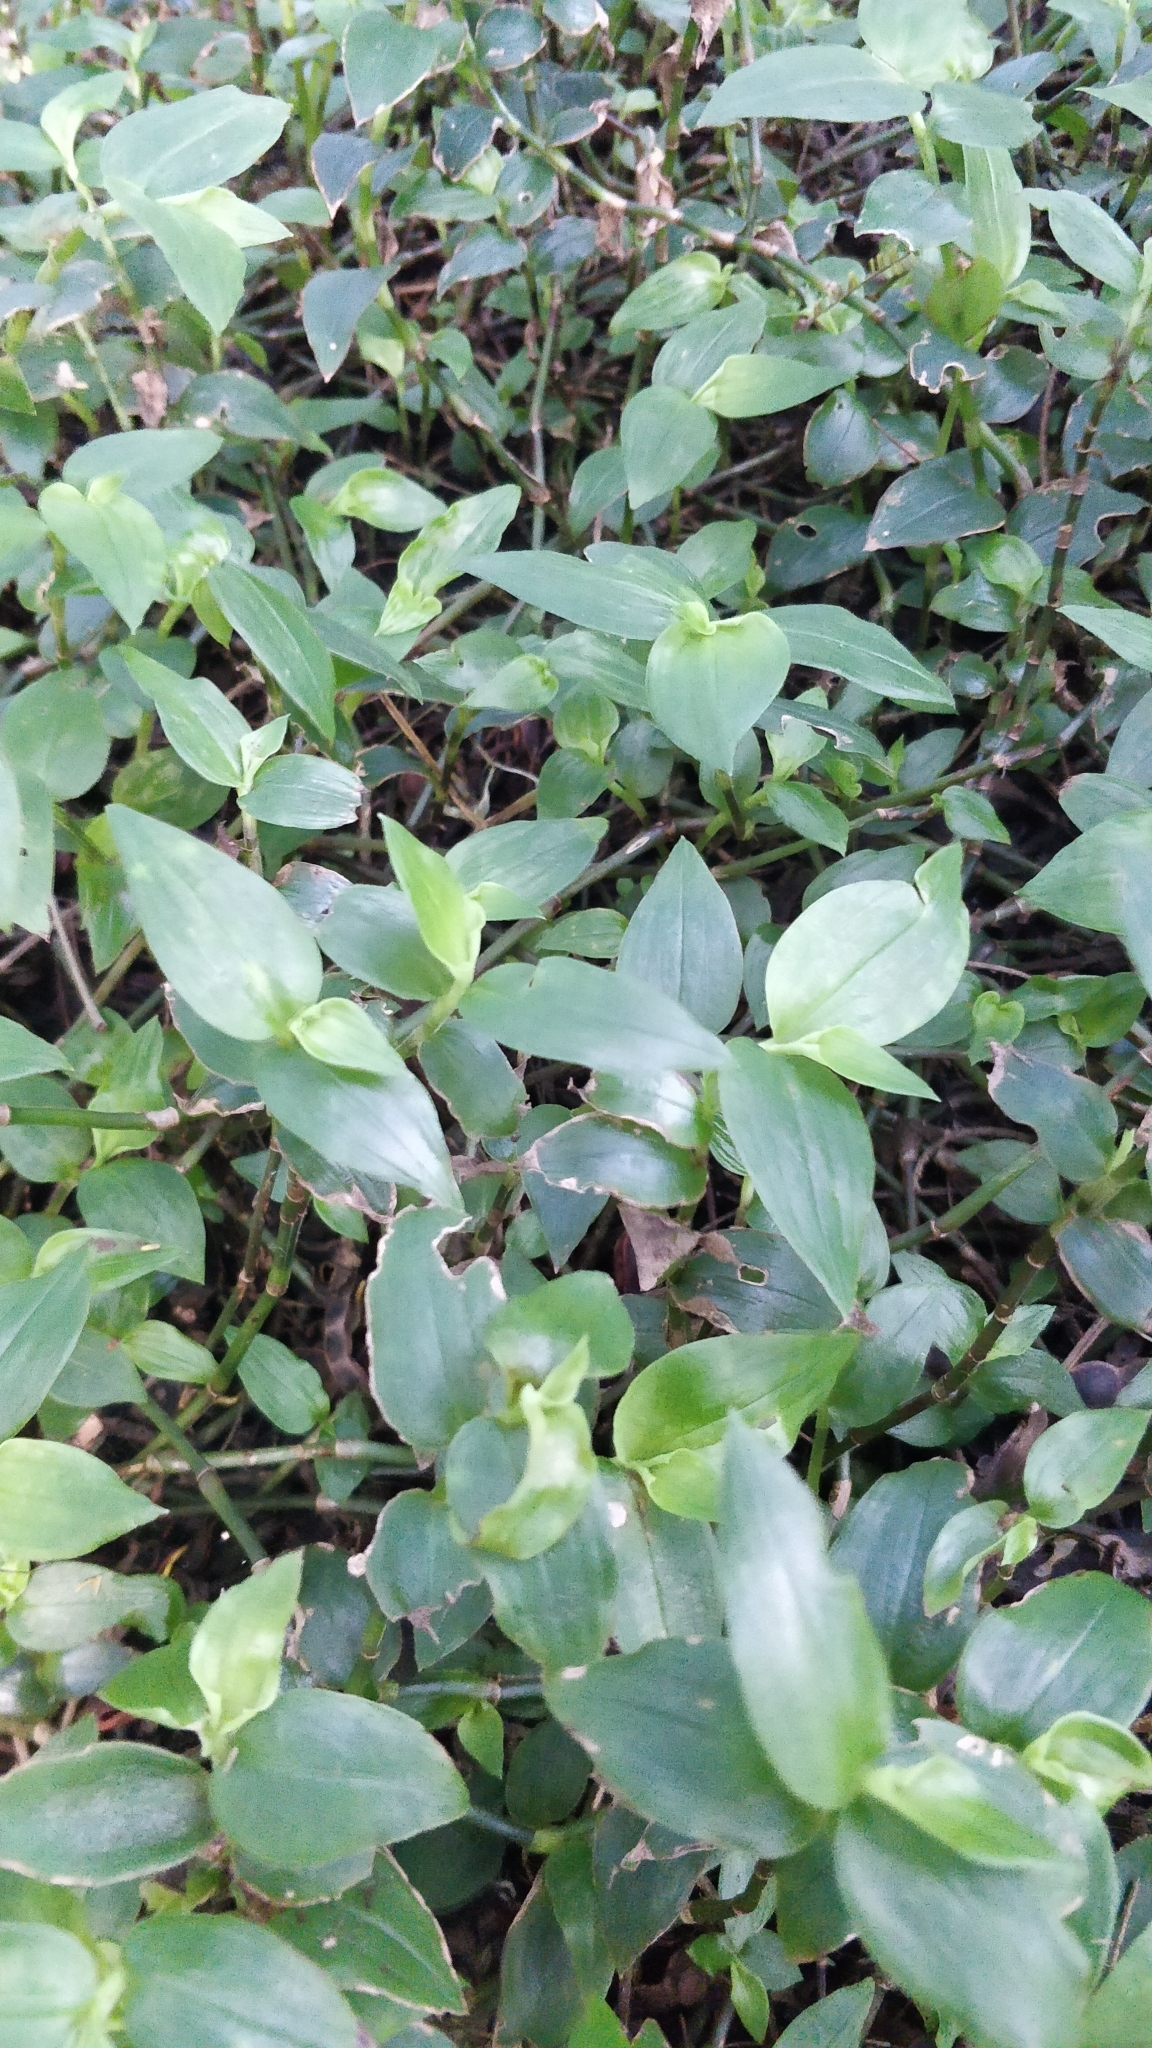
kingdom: Plantae
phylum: Tracheophyta
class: Liliopsida
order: Commelinales
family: Commelinaceae
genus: Tradescantia
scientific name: Tradescantia fluminensis
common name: Wandering-jew
